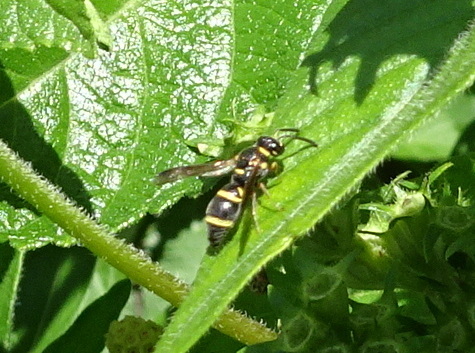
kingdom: Animalia
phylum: Arthropoda
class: Insecta
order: Hymenoptera
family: Eumenidae
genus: Parancistrocerus
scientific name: Parancistrocerus fulvipes
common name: Potter wasp
